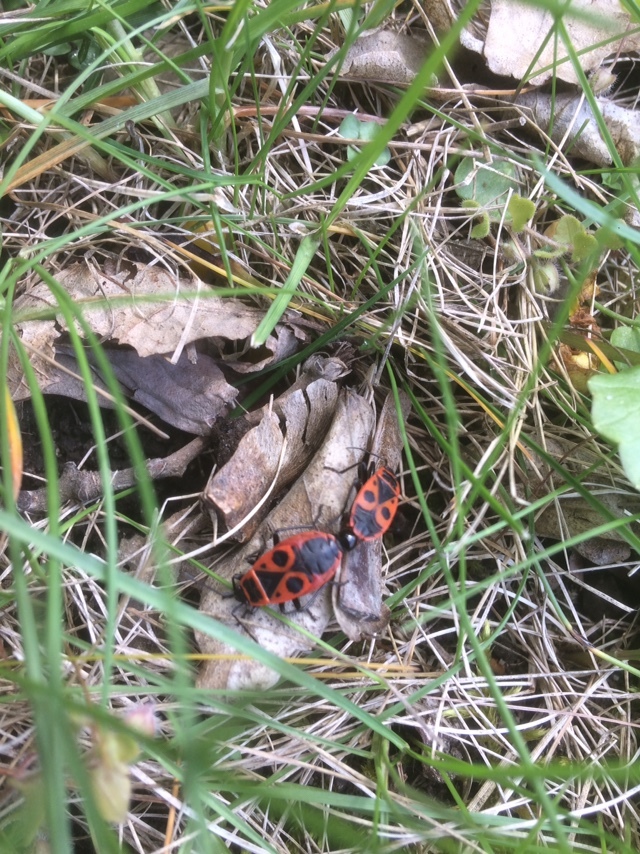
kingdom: Animalia
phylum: Arthropoda
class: Insecta
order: Hemiptera
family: Pyrrhocoridae
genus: Pyrrhocoris
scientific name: Pyrrhocoris apterus
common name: Firebug
